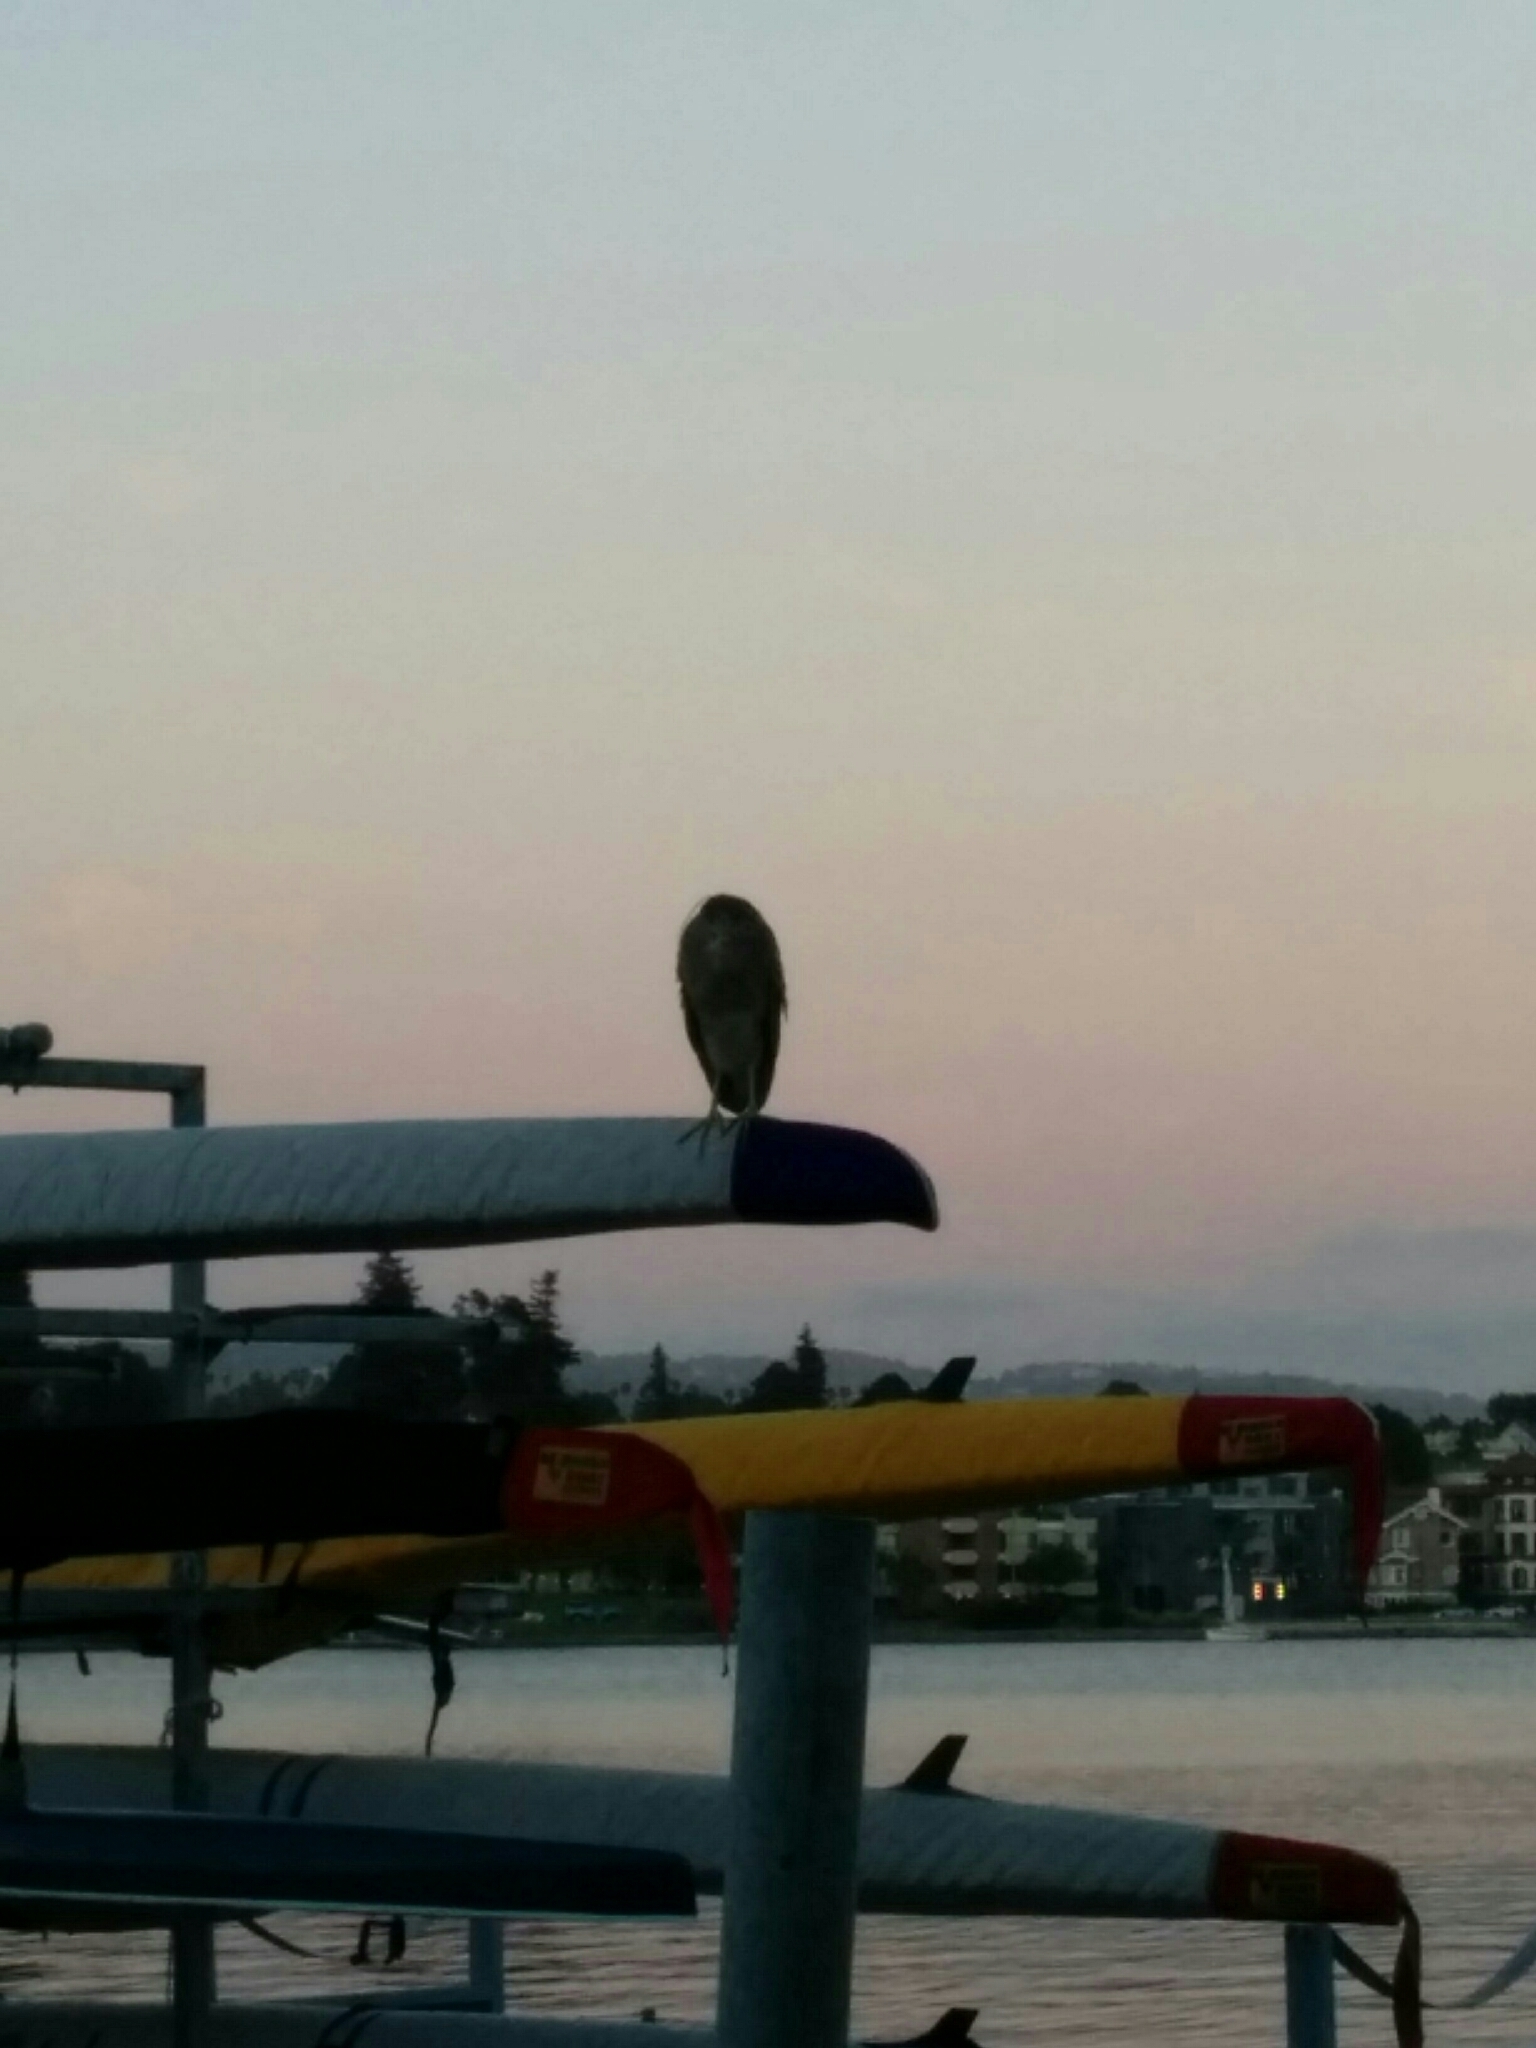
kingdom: Animalia
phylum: Chordata
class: Aves
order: Pelecaniformes
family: Ardeidae
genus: Nycticorax
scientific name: Nycticorax nycticorax
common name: Black-crowned night heron
